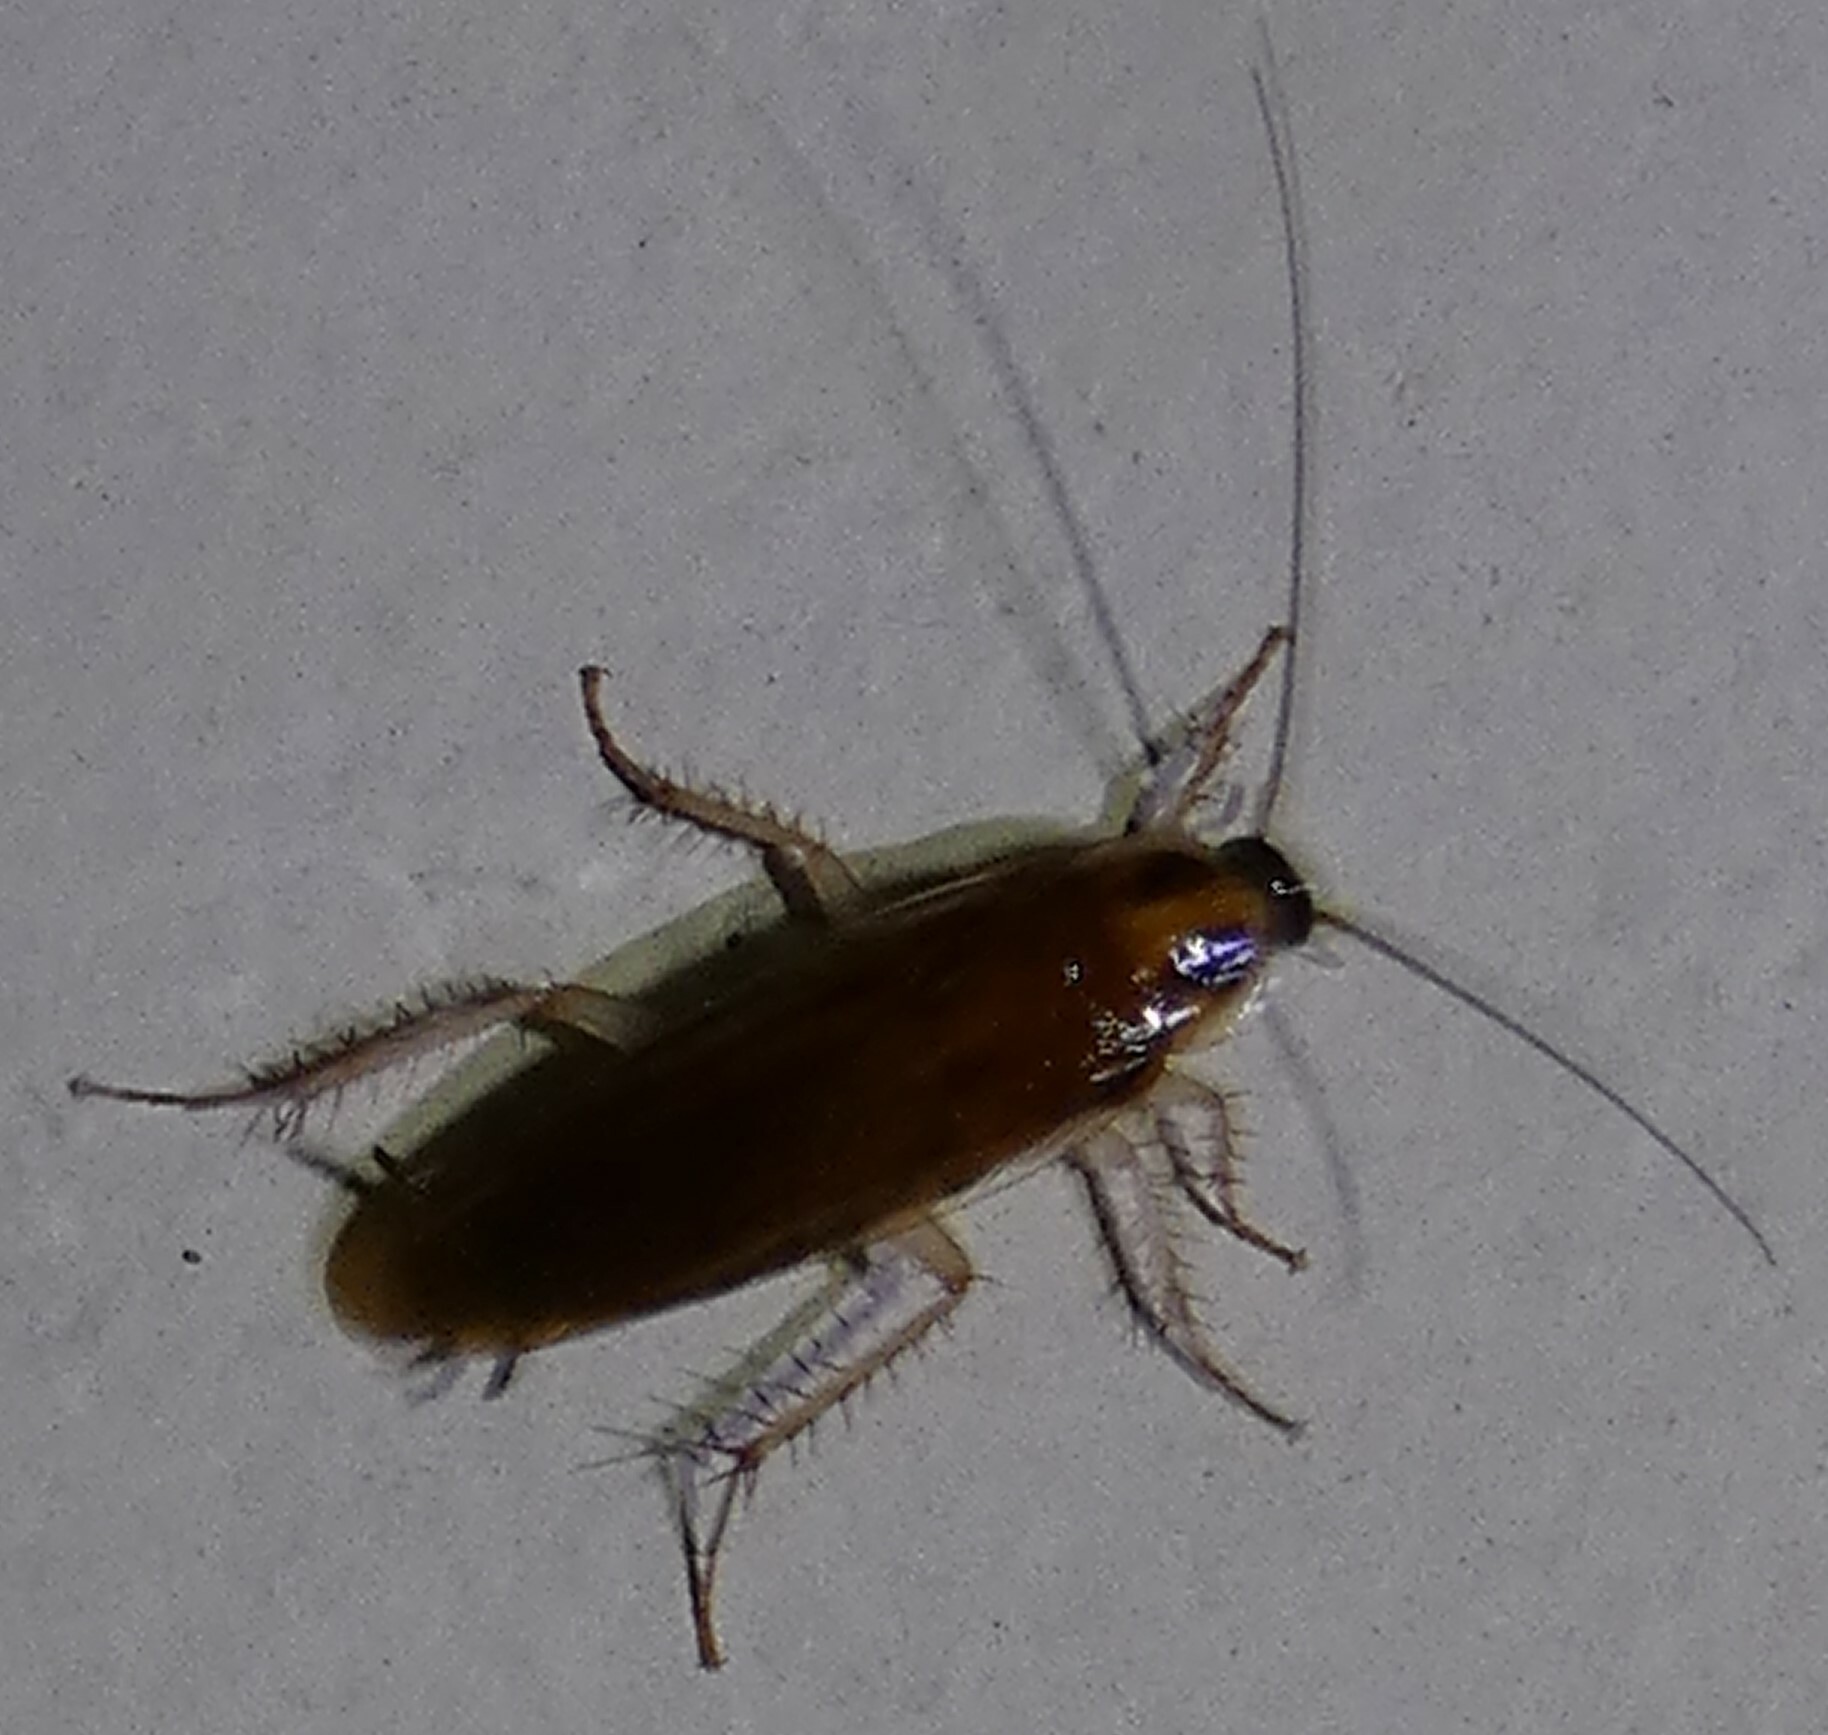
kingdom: Animalia
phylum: Arthropoda
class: Insecta
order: Blattodea
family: Ectobiidae
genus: Ischnoptera
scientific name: Ischnoptera bilunata
